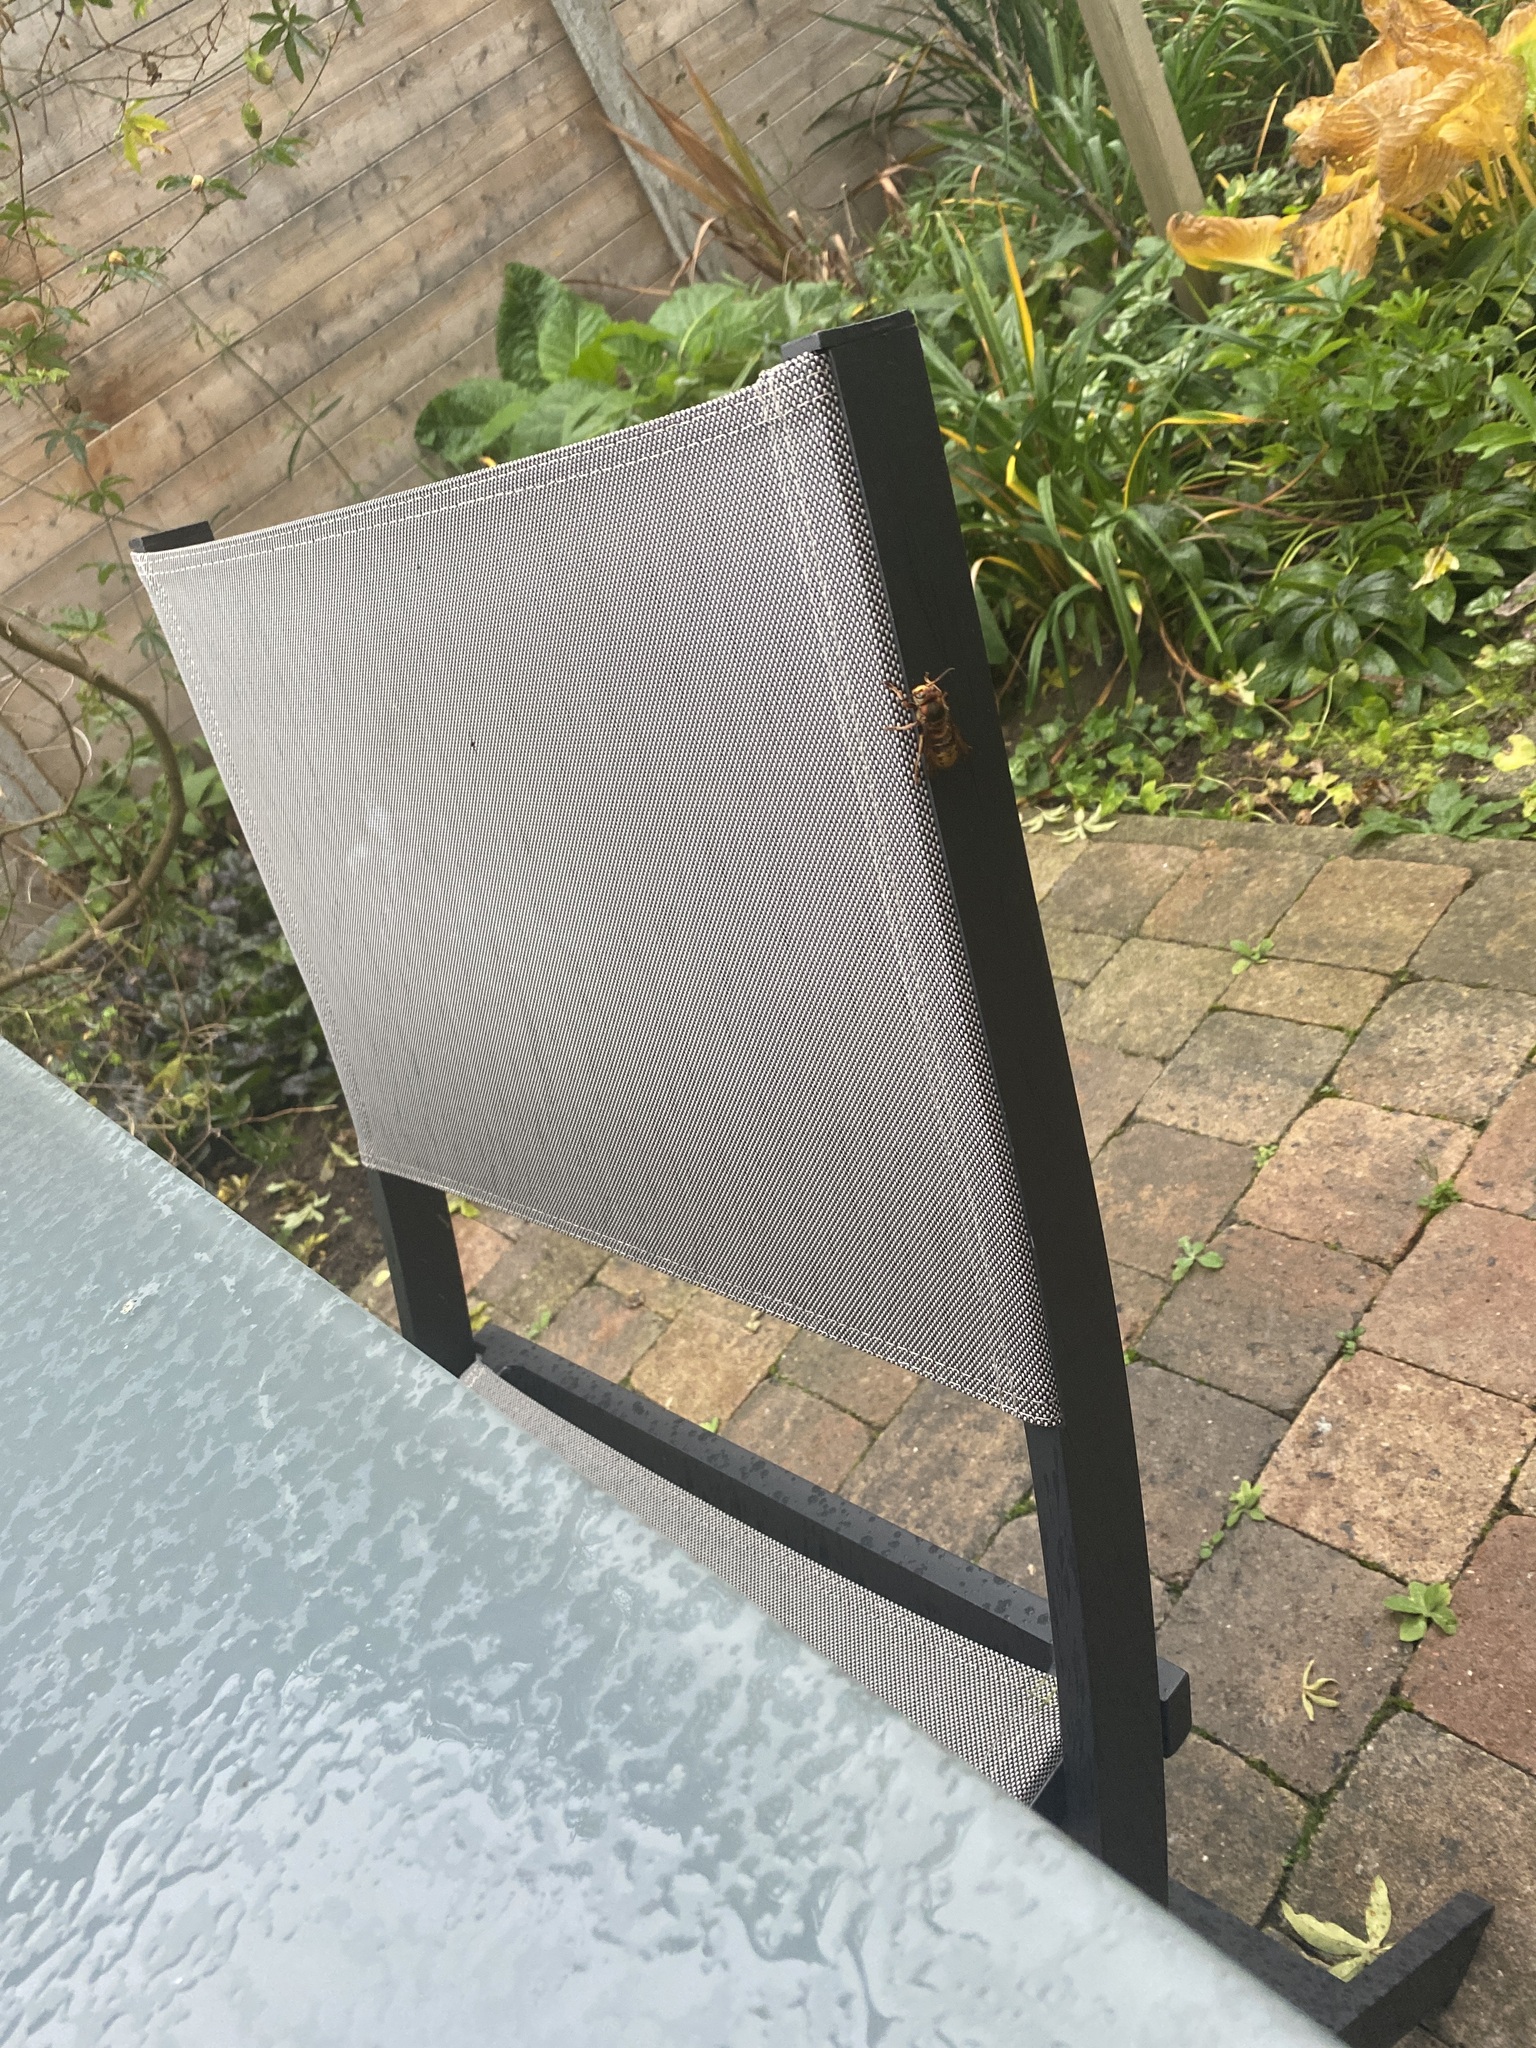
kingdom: Animalia
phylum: Arthropoda
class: Insecta
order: Hymenoptera
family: Vespidae
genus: Vespa
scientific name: Vespa crabro
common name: Hornet
